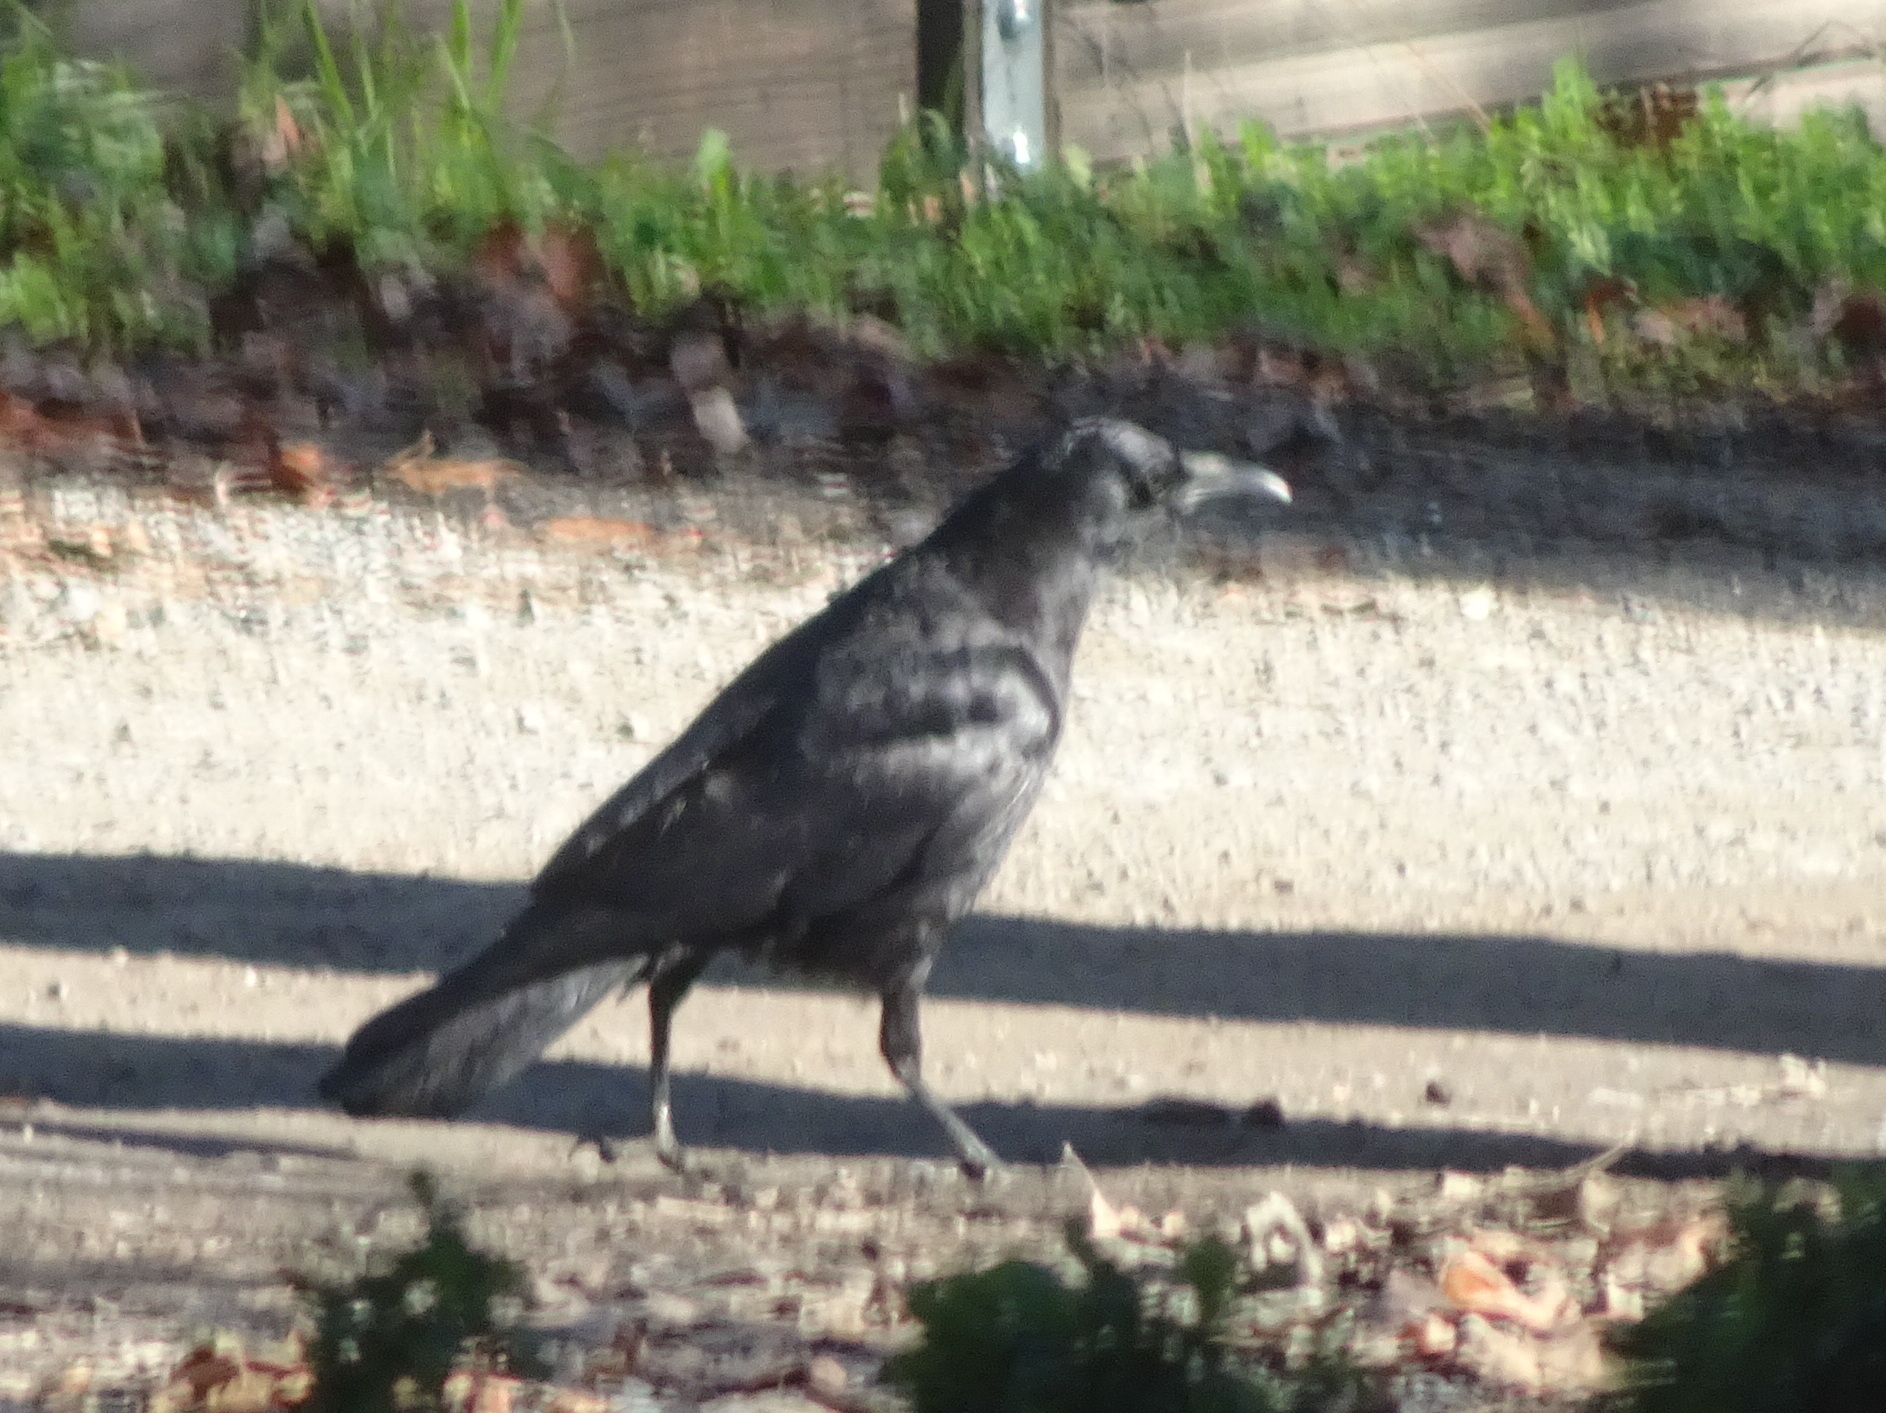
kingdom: Animalia
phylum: Chordata
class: Aves
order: Passeriformes
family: Corvidae
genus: Corvus
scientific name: Corvus corax
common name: Common raven
